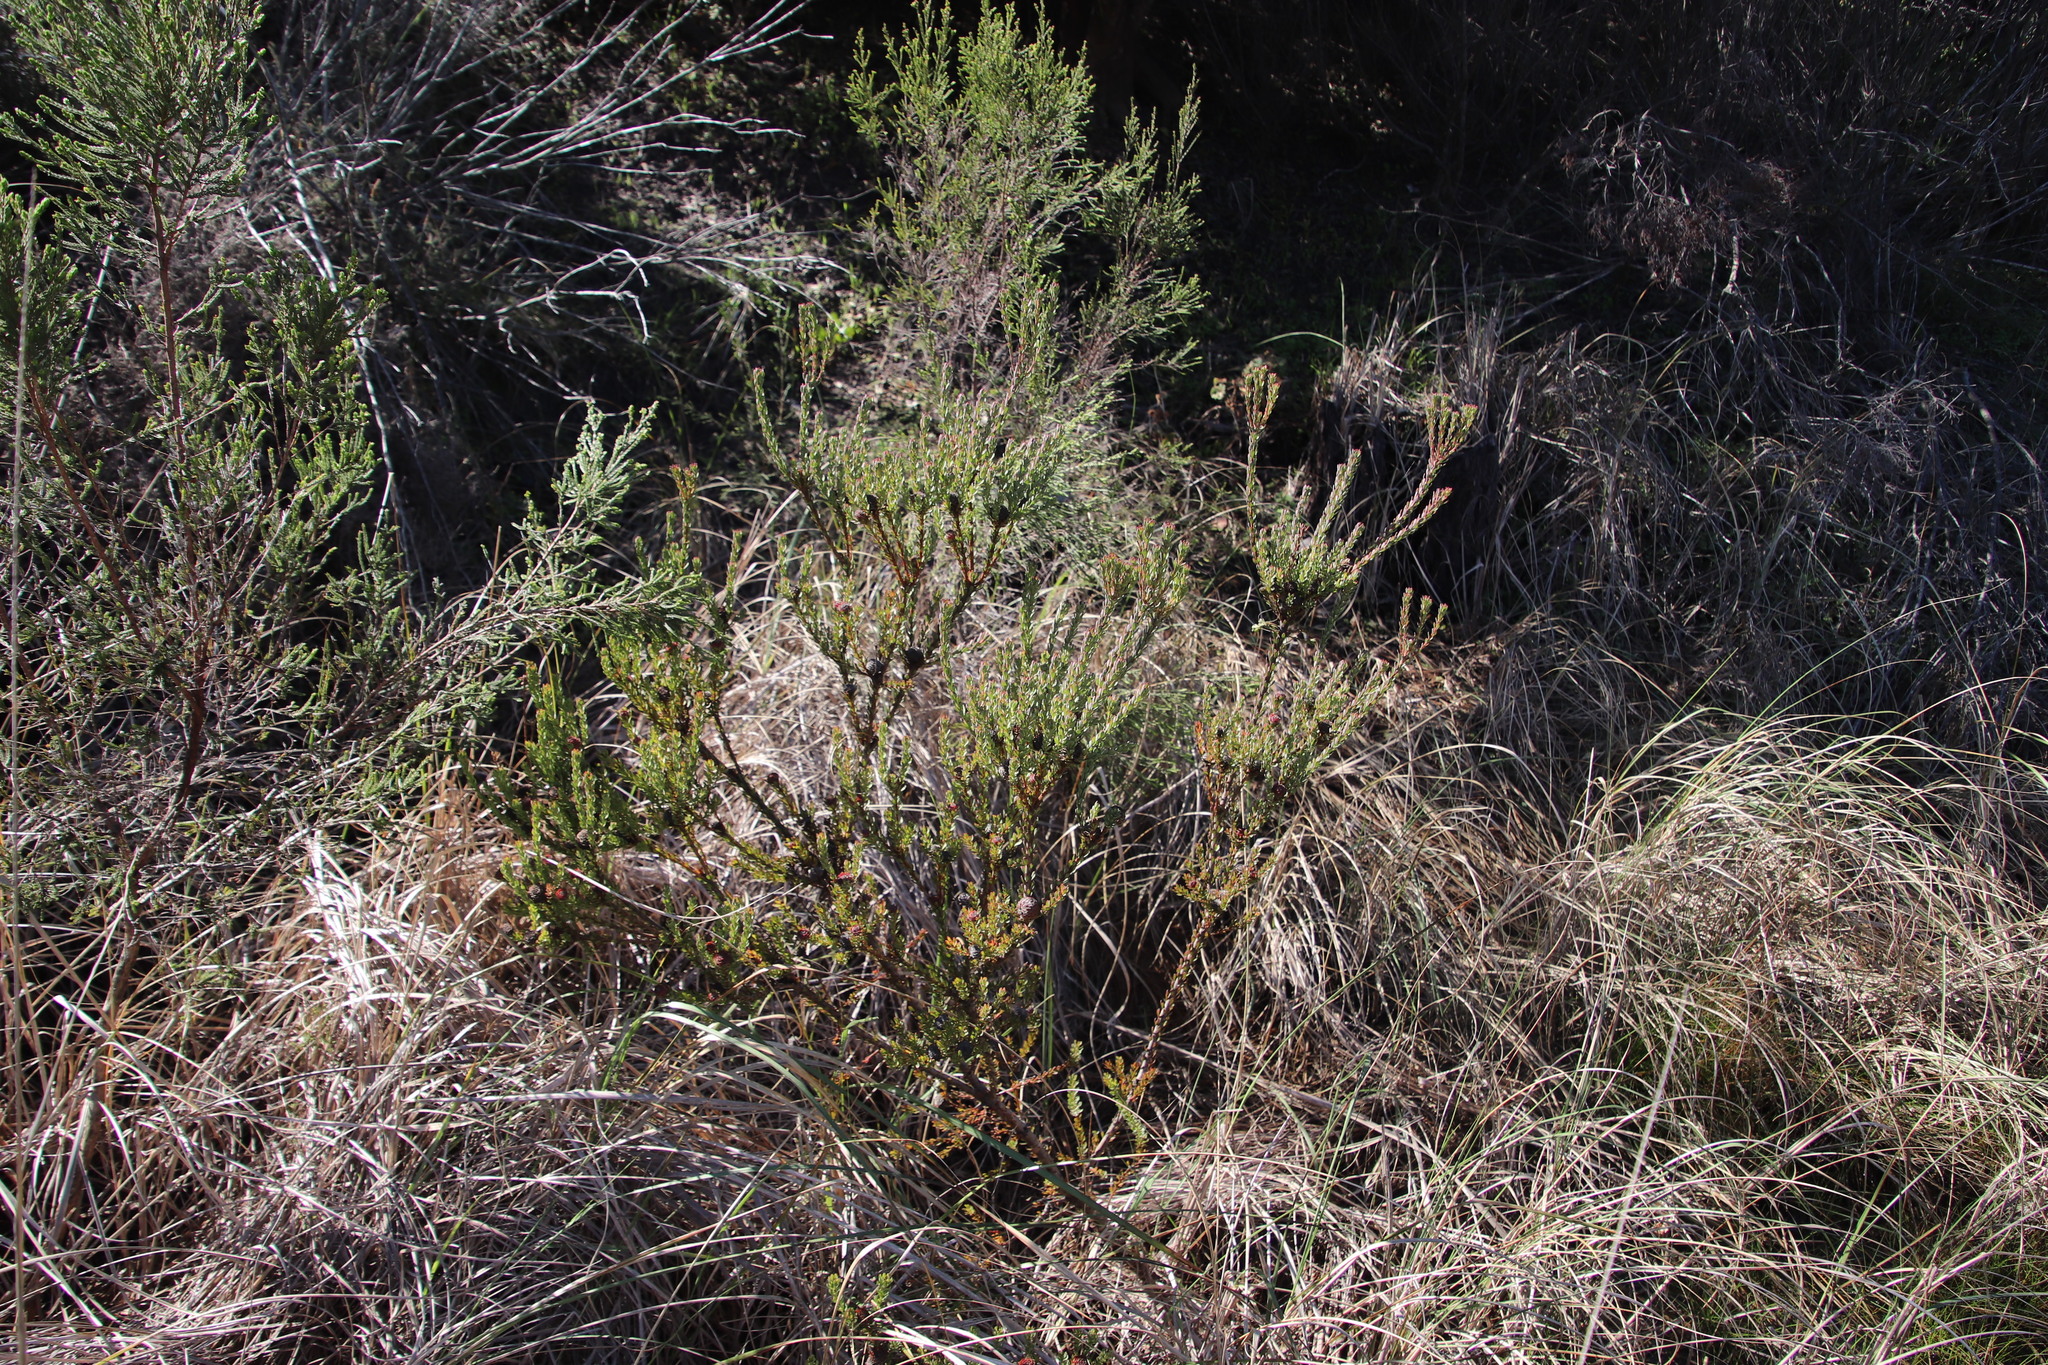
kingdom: Plantae
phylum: Tracheophyta
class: Magnoliopsida
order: Proteales
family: Proteaceae
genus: Leucadendron
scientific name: Leucadendron levisanus
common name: Cape flats conebush
